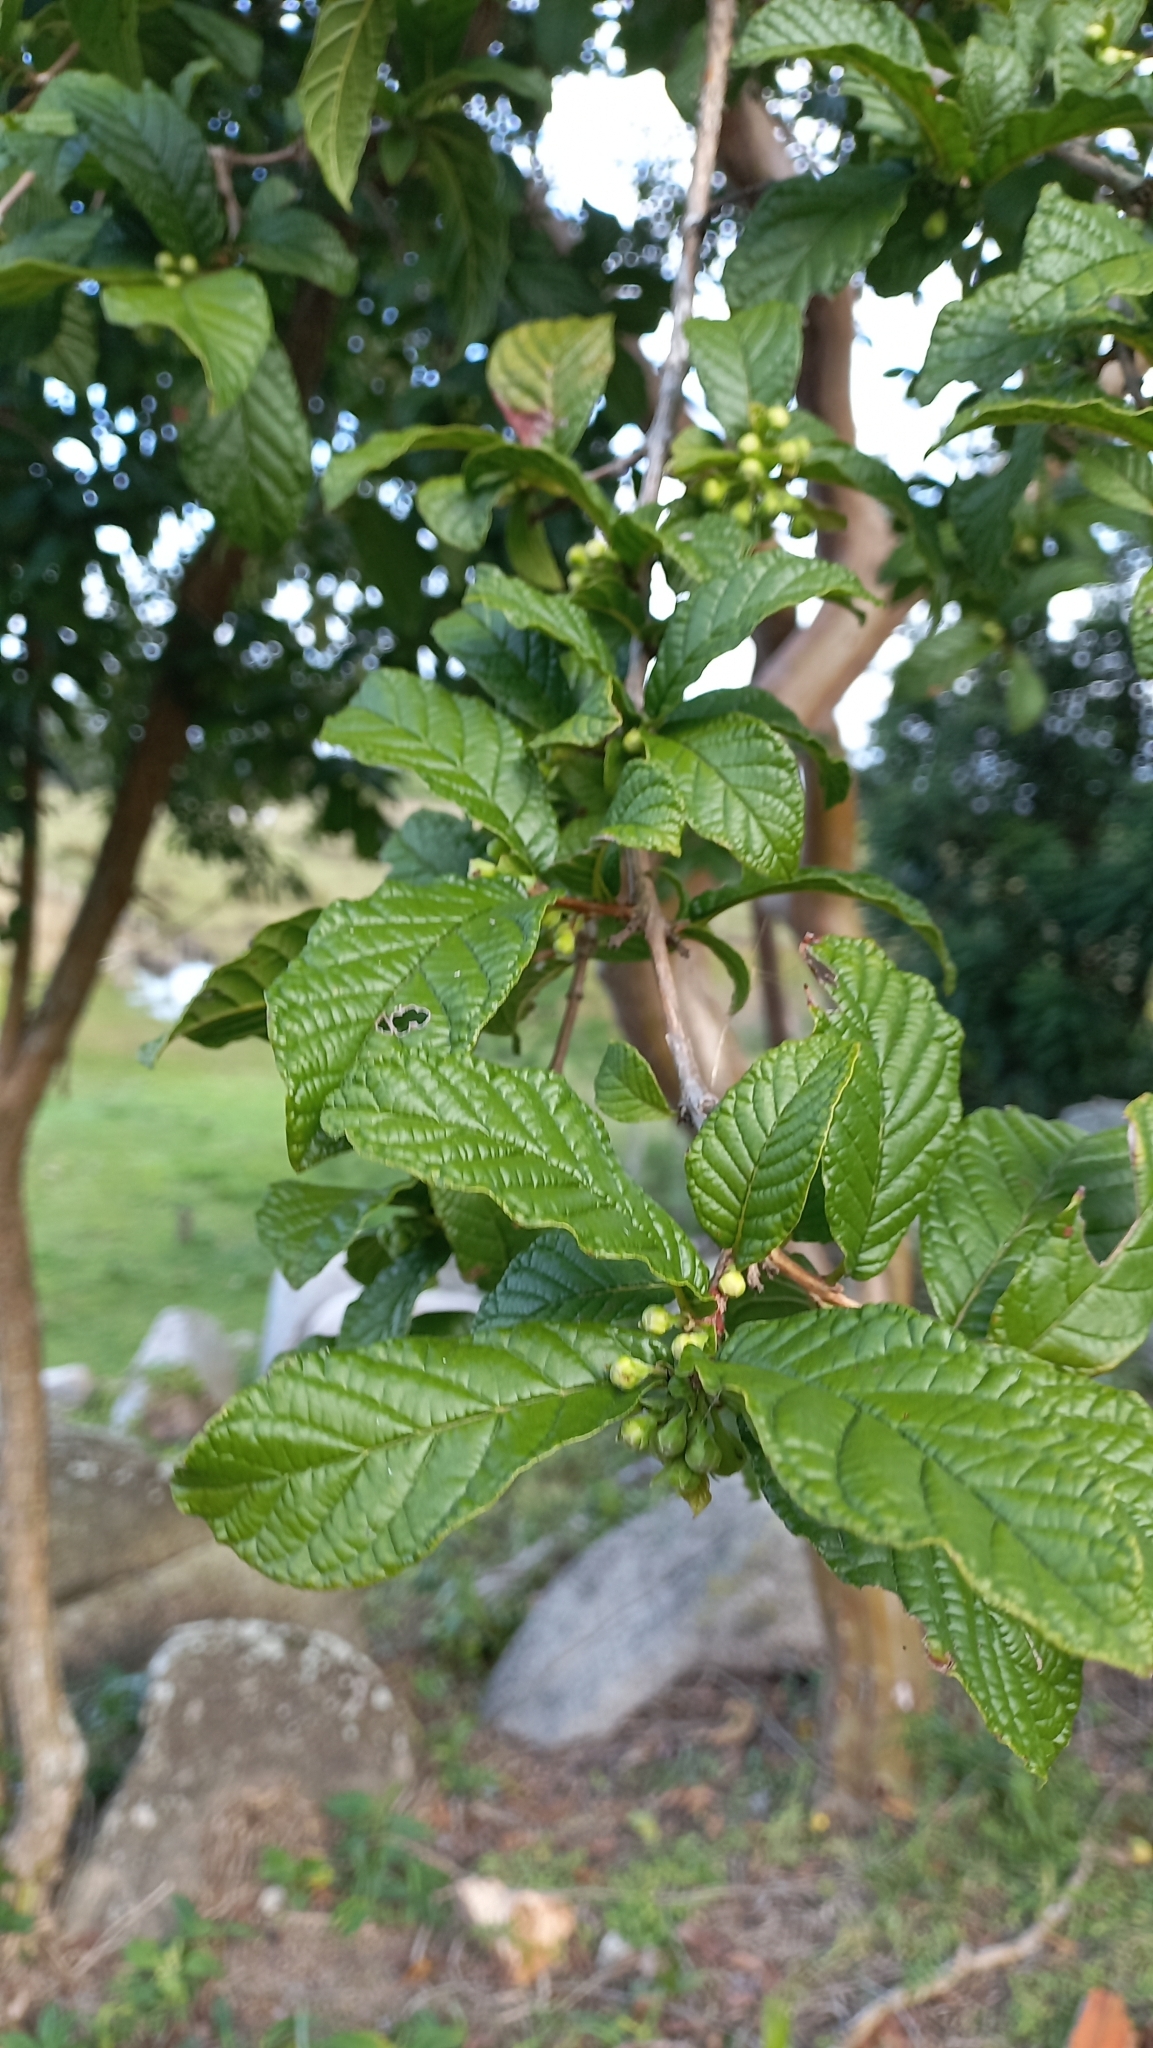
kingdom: Plantae
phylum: Tracheophyta
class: Magnoliopsida
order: Myrtales
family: Myrtaceae
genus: Campomanesia
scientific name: Campomanesia reitziana
